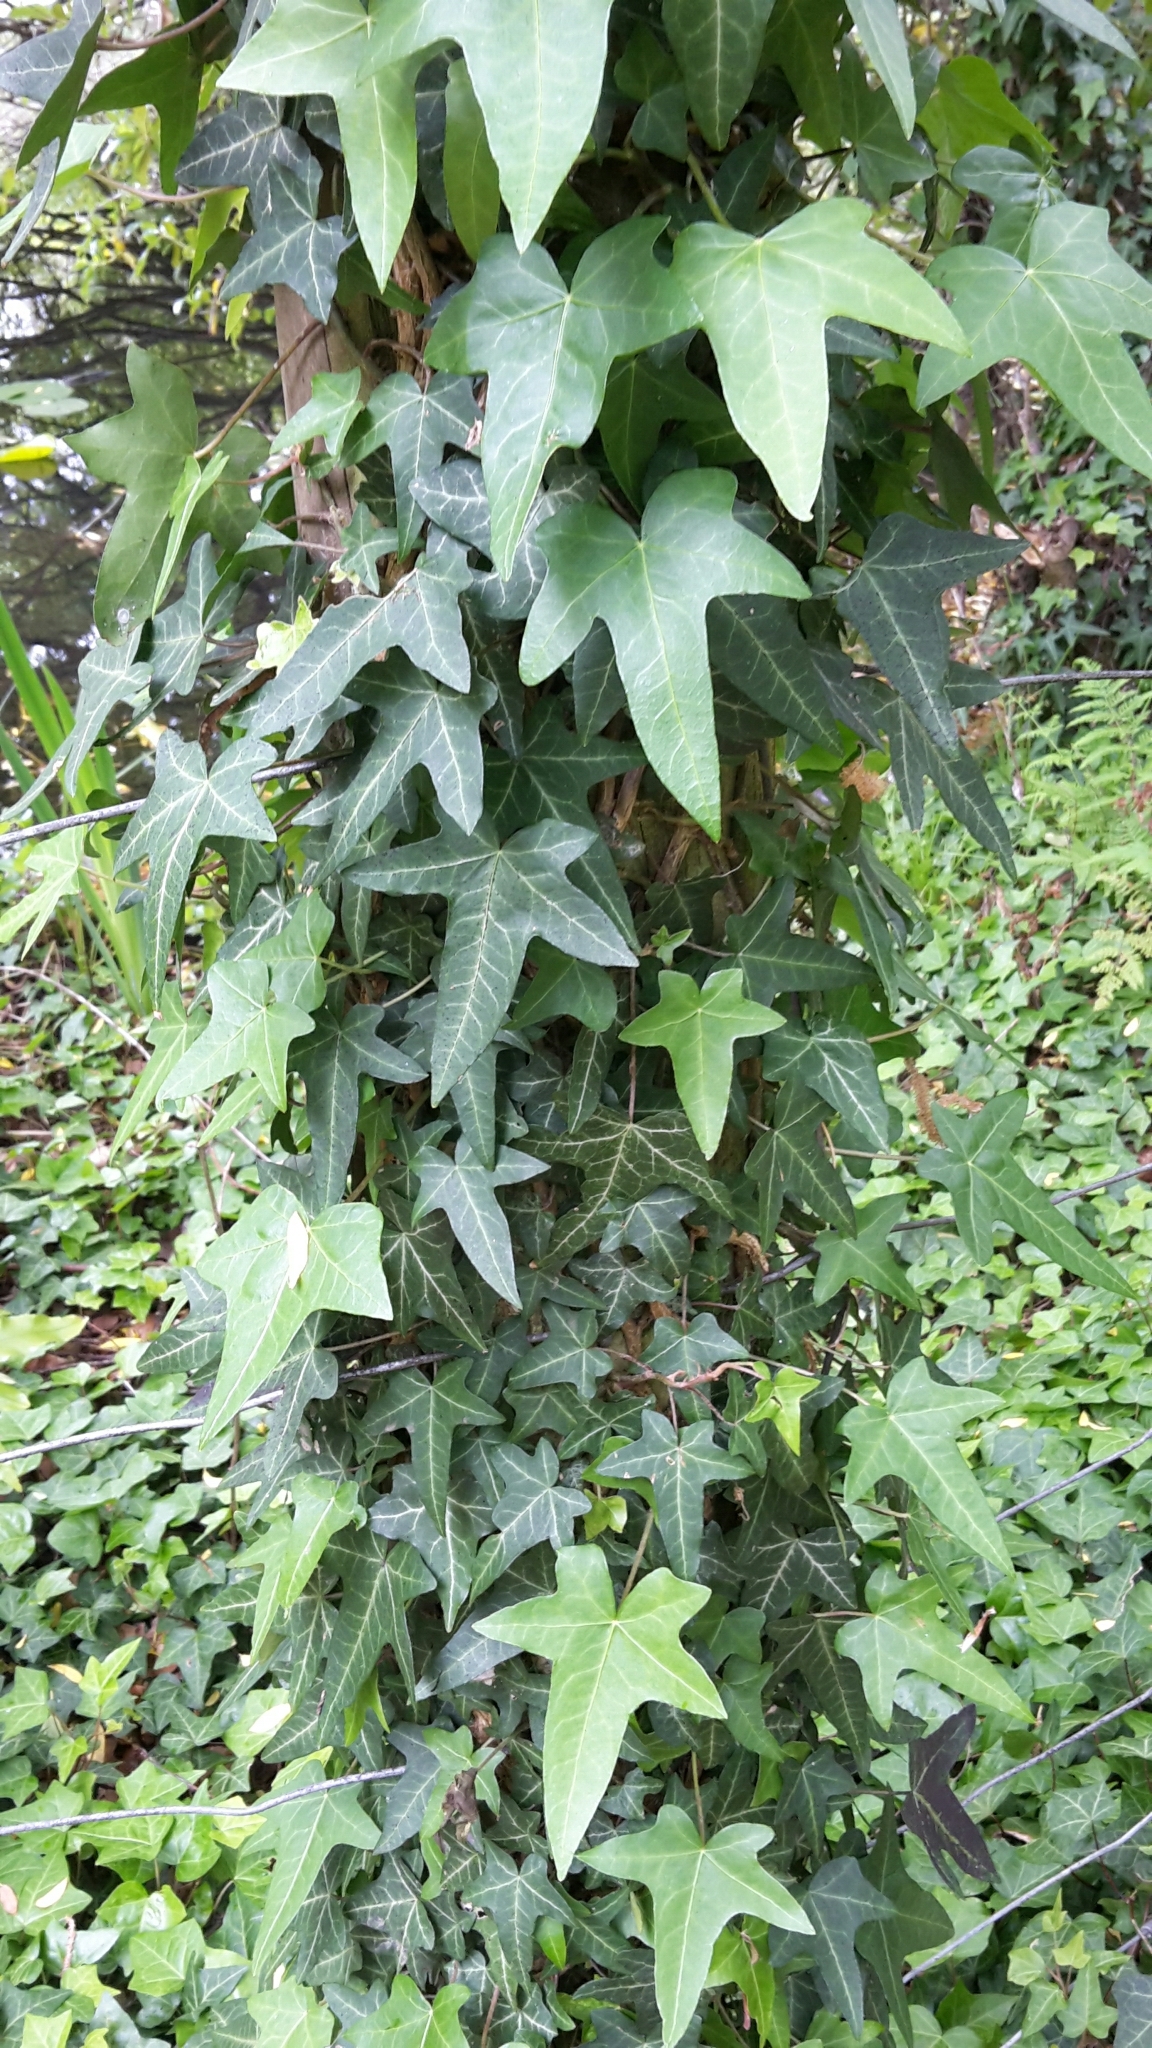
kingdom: Plantae
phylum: Tracheophyta
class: Magnoliopsida
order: Apiales
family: Araliaceae
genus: Hedera
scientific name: Hedera helix
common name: Ivy
